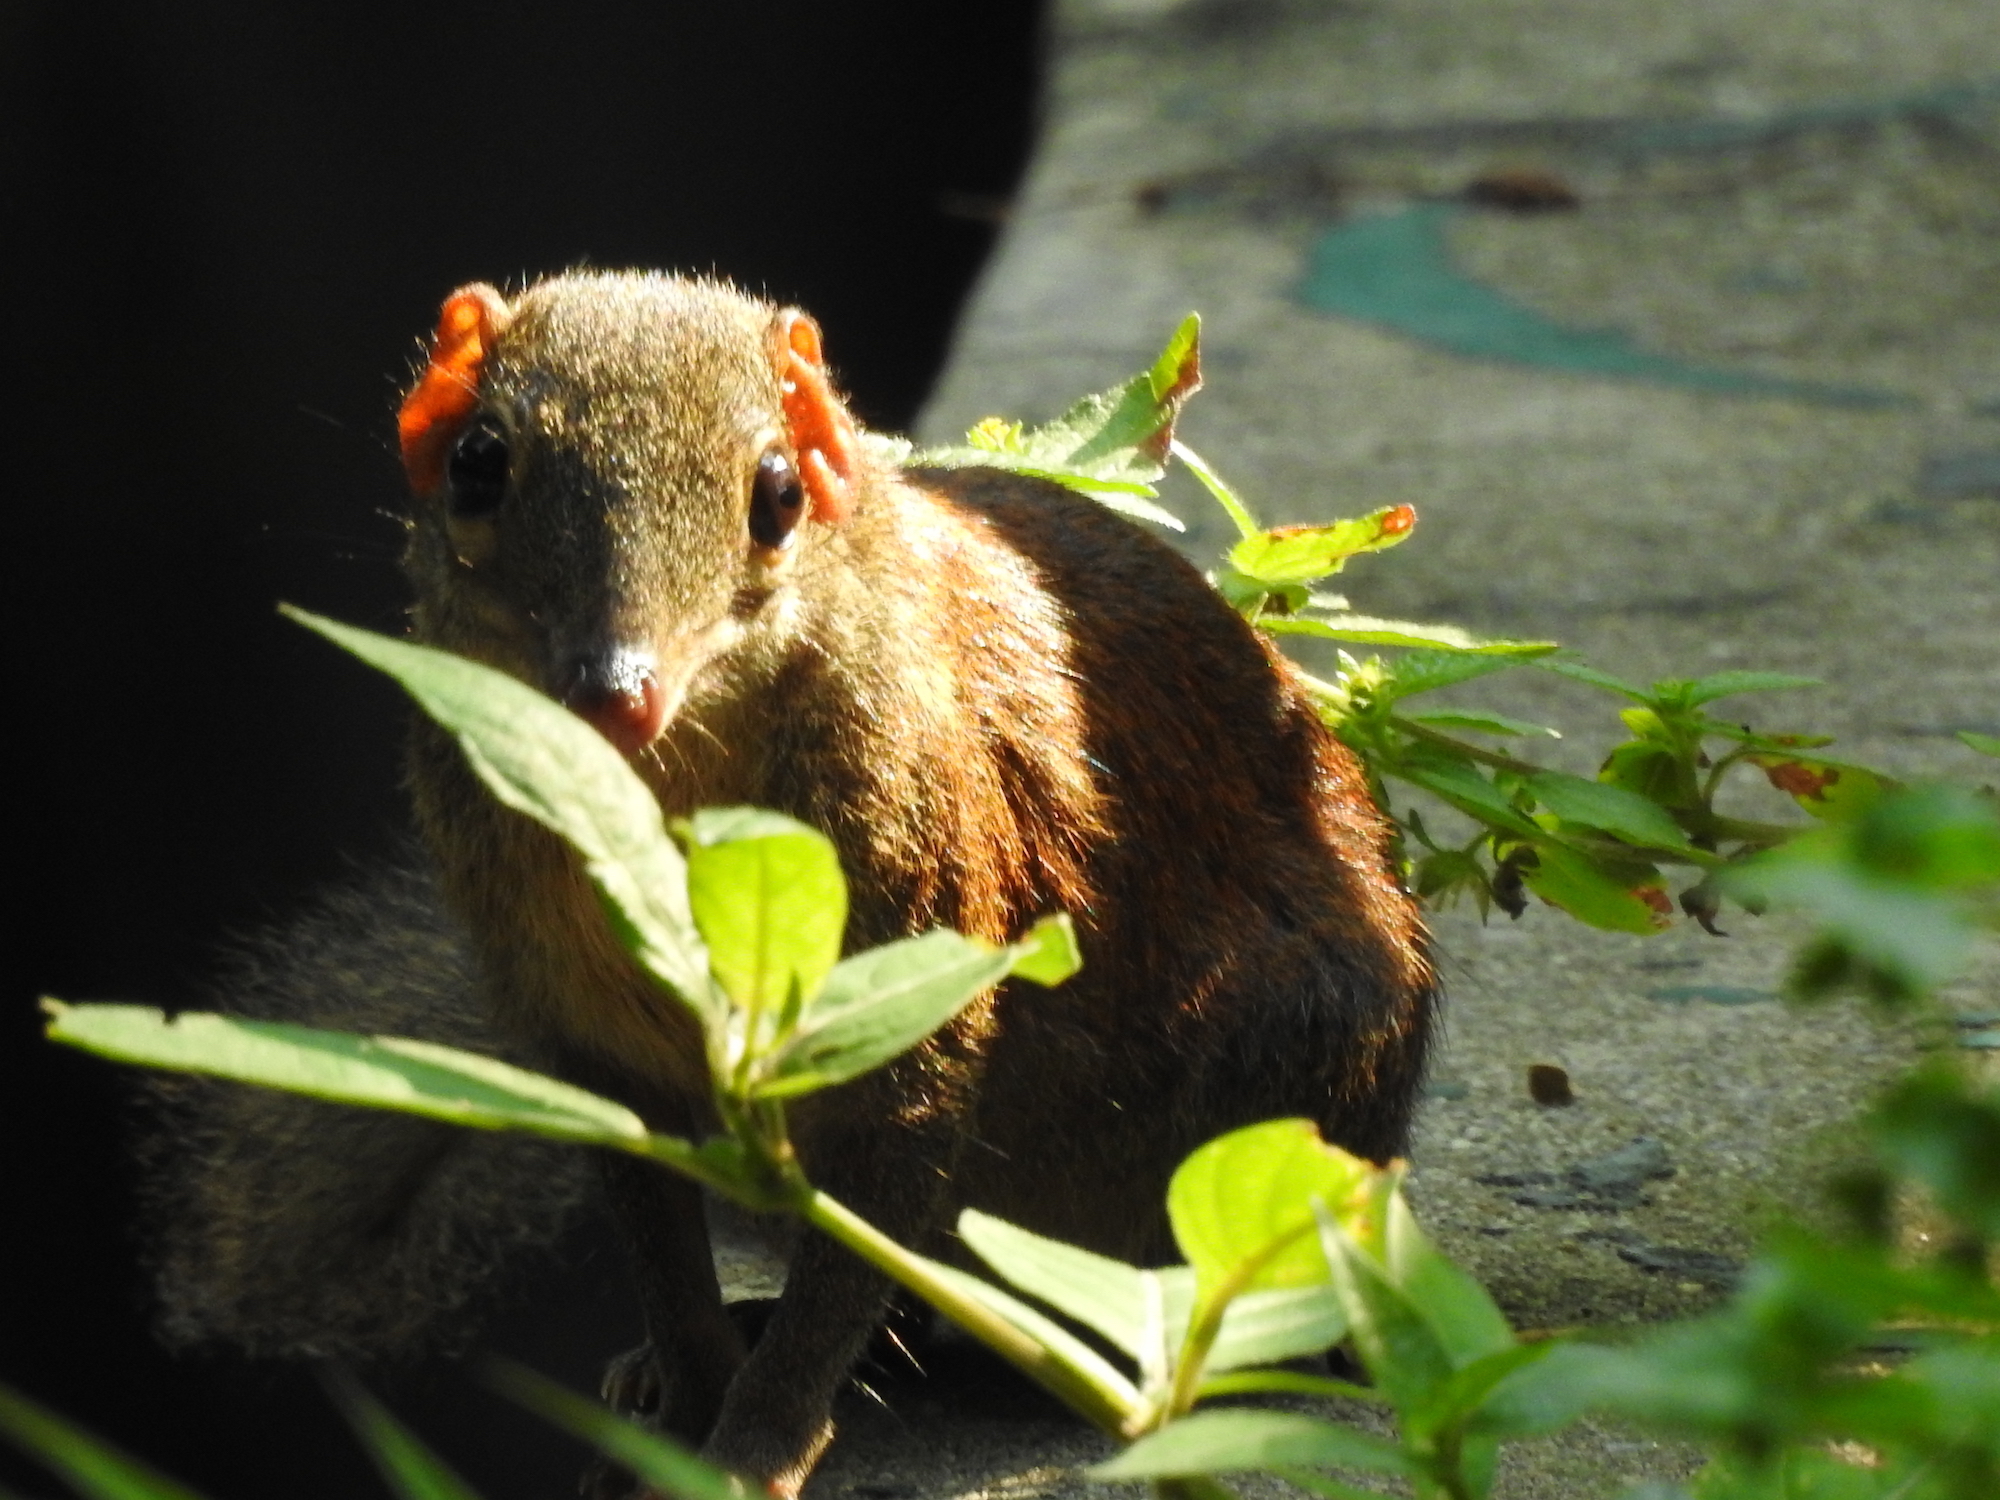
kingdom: Animalia
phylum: Chordata
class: Mammalia
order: Scandentia
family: Tupaiidae
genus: Tupaia
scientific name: Tupaia glis
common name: Common treeshrew
